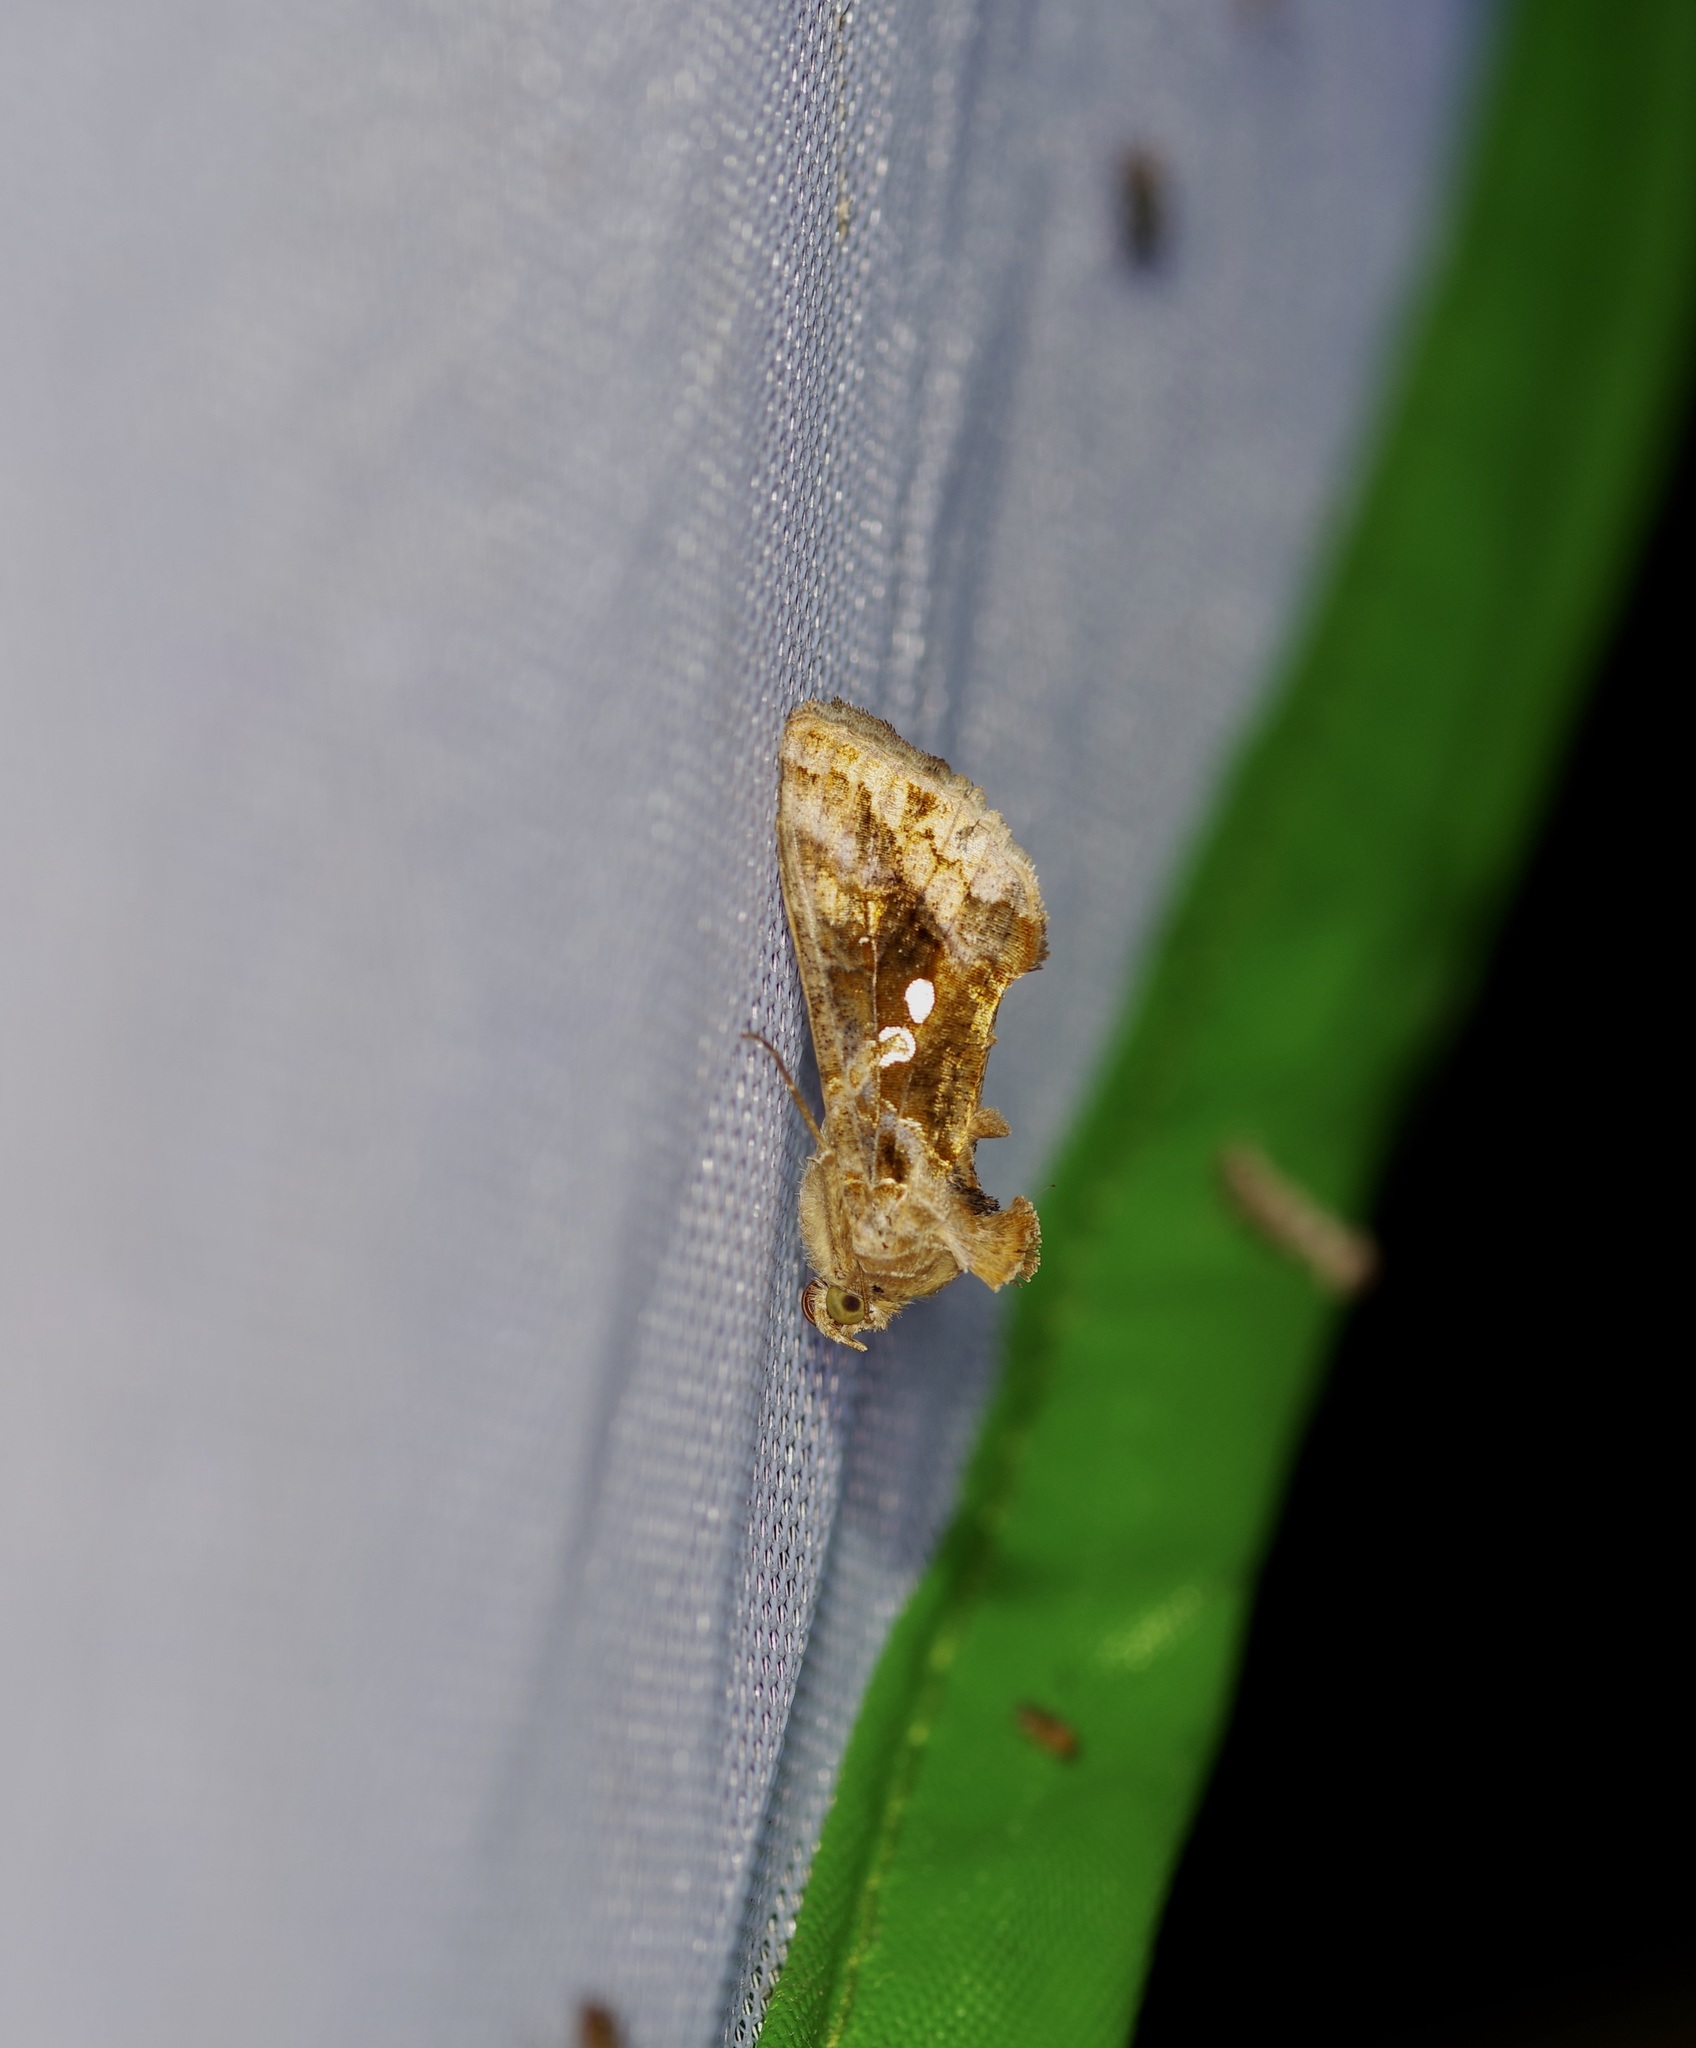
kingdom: Animalia
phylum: Arthropoda
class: Insecta
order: Lepidoptera
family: Noctuidae
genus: Chrysodeixis
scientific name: Chrysodeixis includens
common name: Cutworm moth
